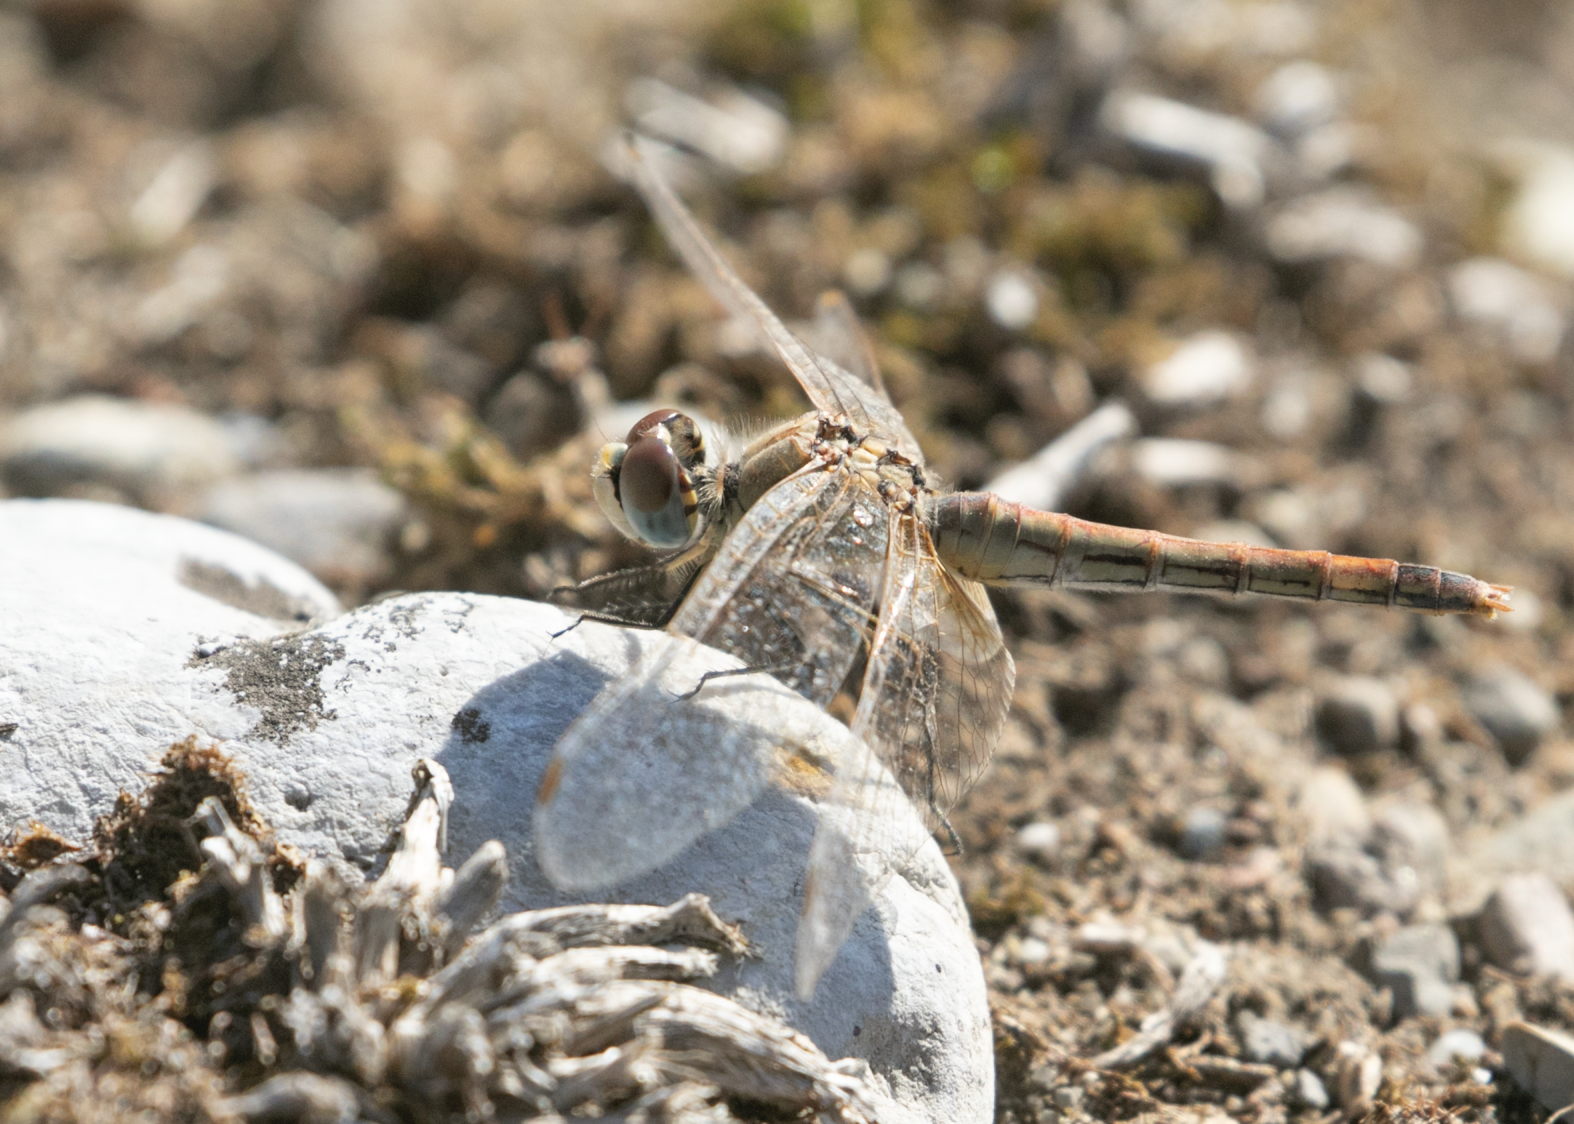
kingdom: Animalia
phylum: Arthropoda
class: Insecta
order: Odonata
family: Libellulidae
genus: Sympetrum
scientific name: Sympetrum fonscolombii
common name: Red-veined darter
